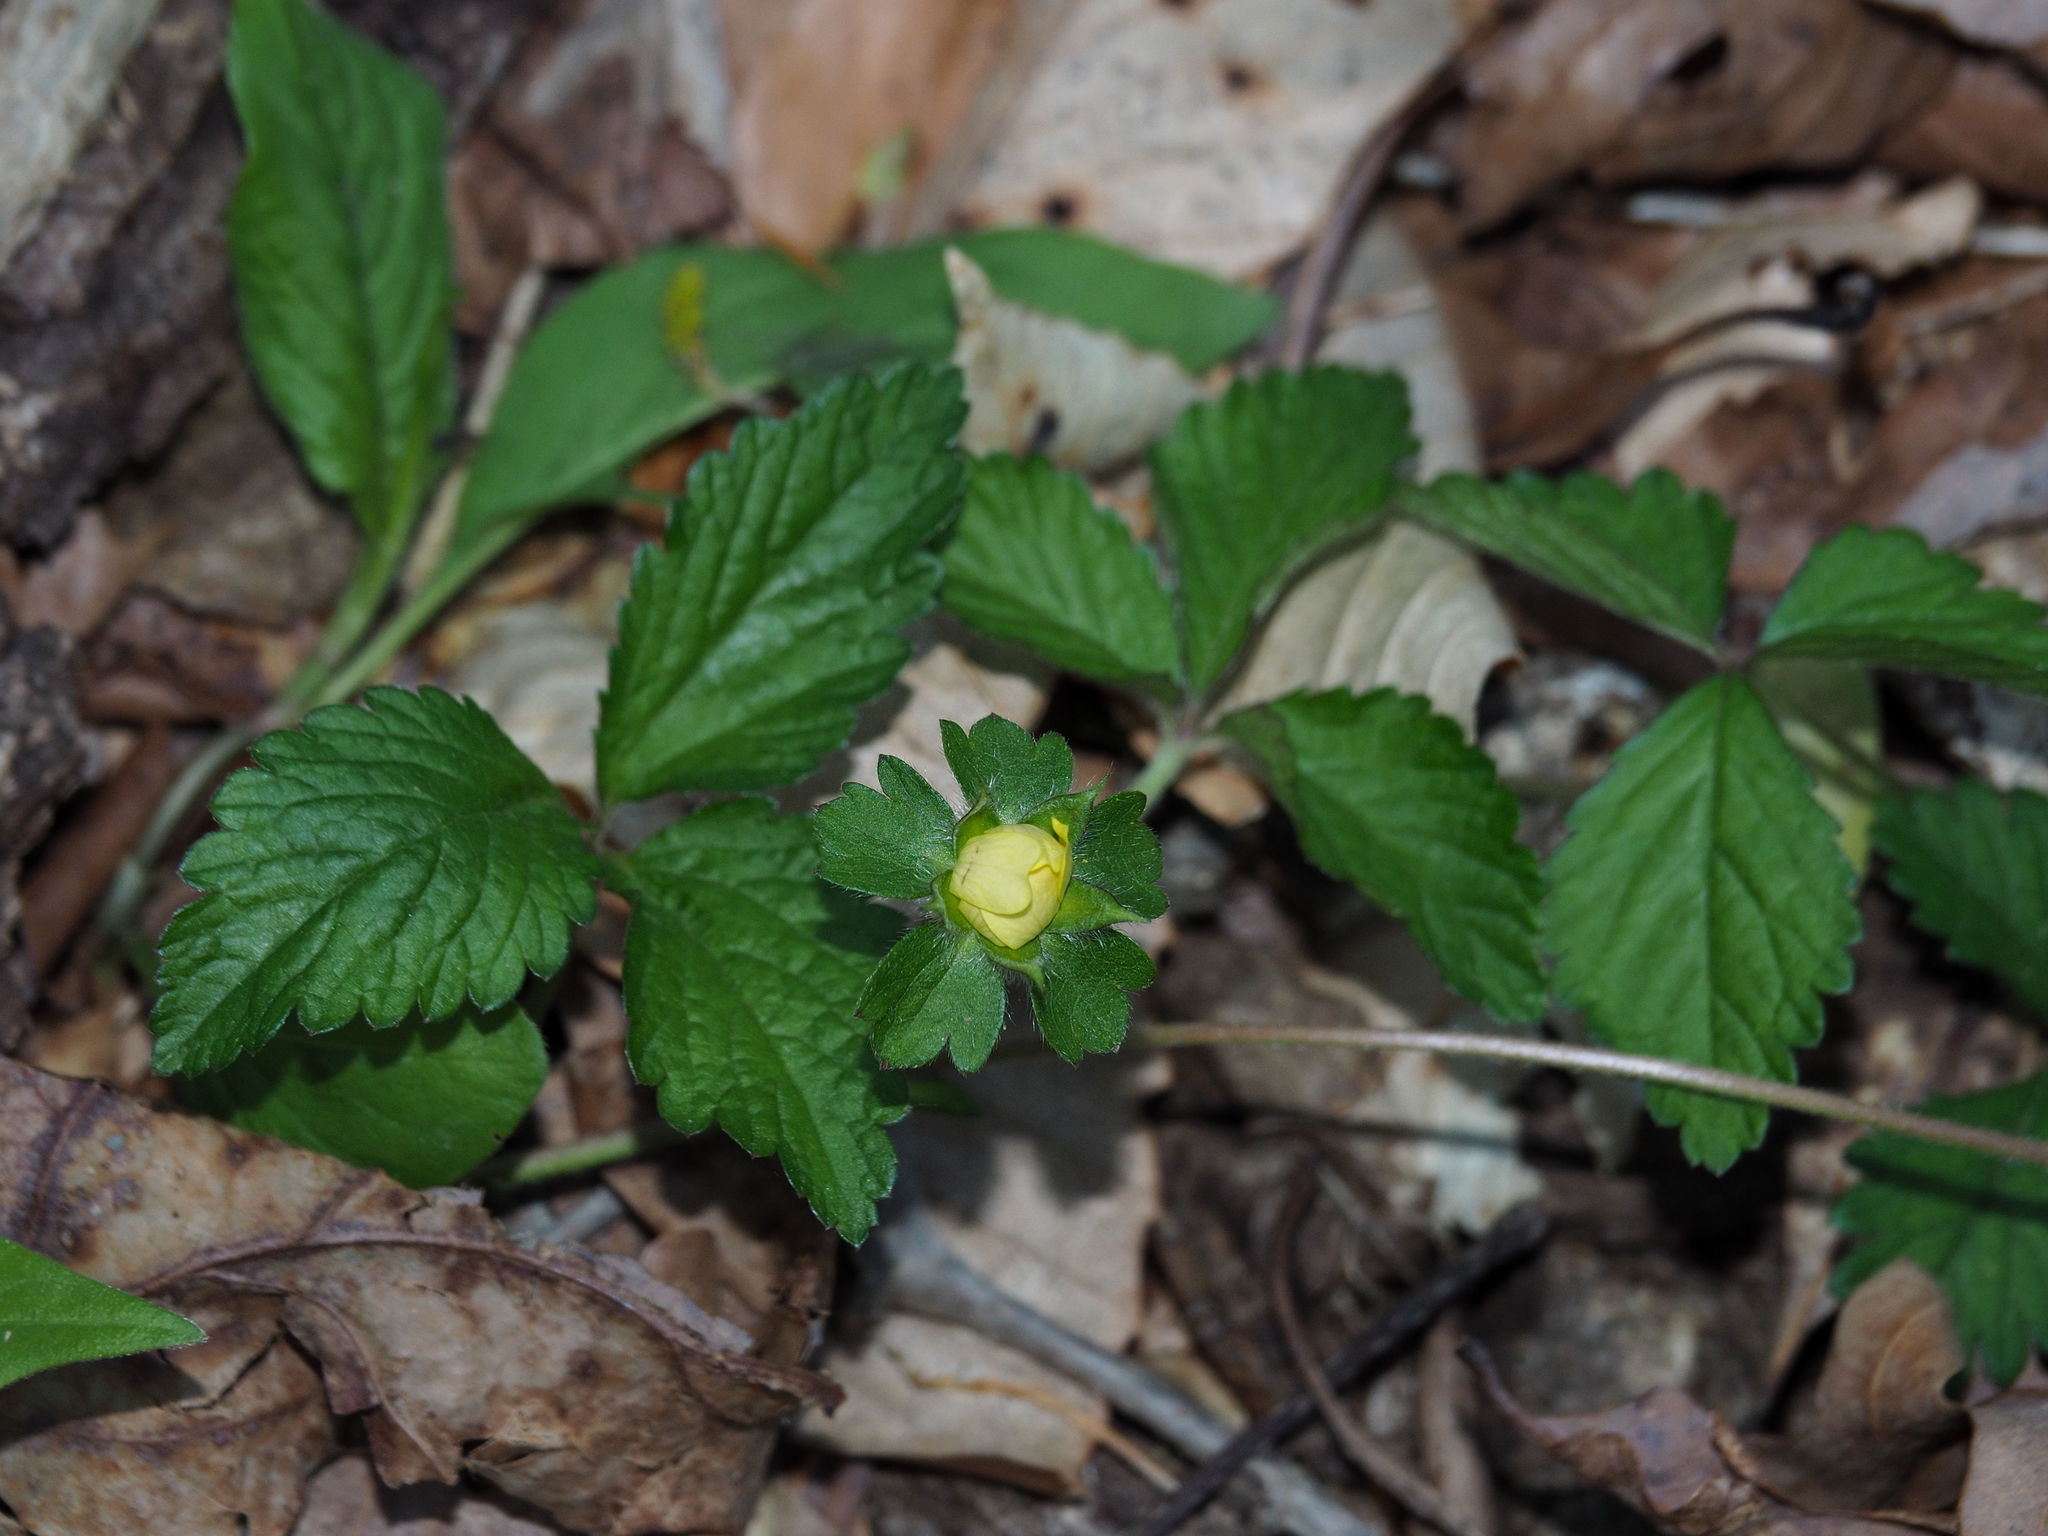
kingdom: Plantae
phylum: Tracheophyta
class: Magnoliopsida
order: Rosales
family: Rosaceae
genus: Potentilla
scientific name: Potentilla indica
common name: Yellow-flowered strawberry
